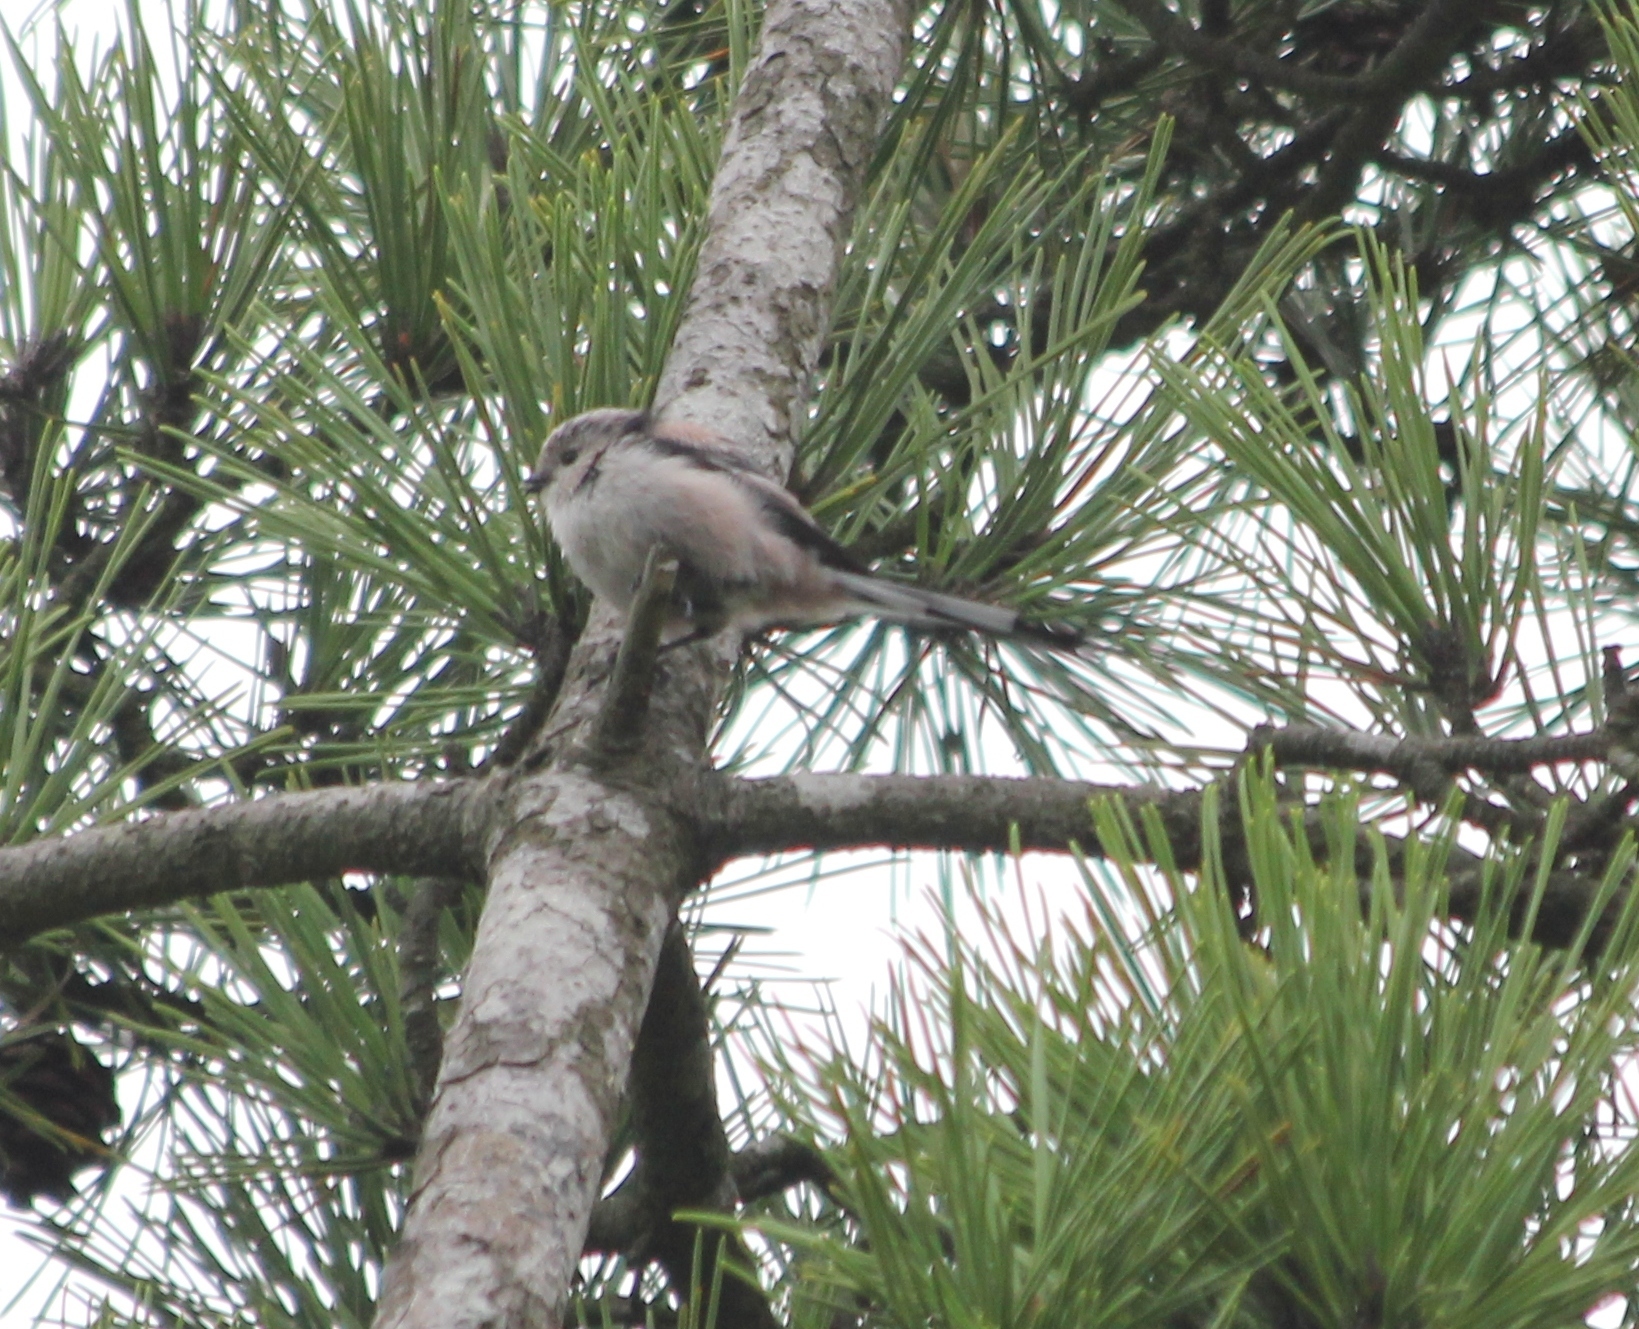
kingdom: Animalia
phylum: Chordata
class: Aves
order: Passeriformes
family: Aegithalidae
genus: Aegithalos
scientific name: Aegithalos caudatus
